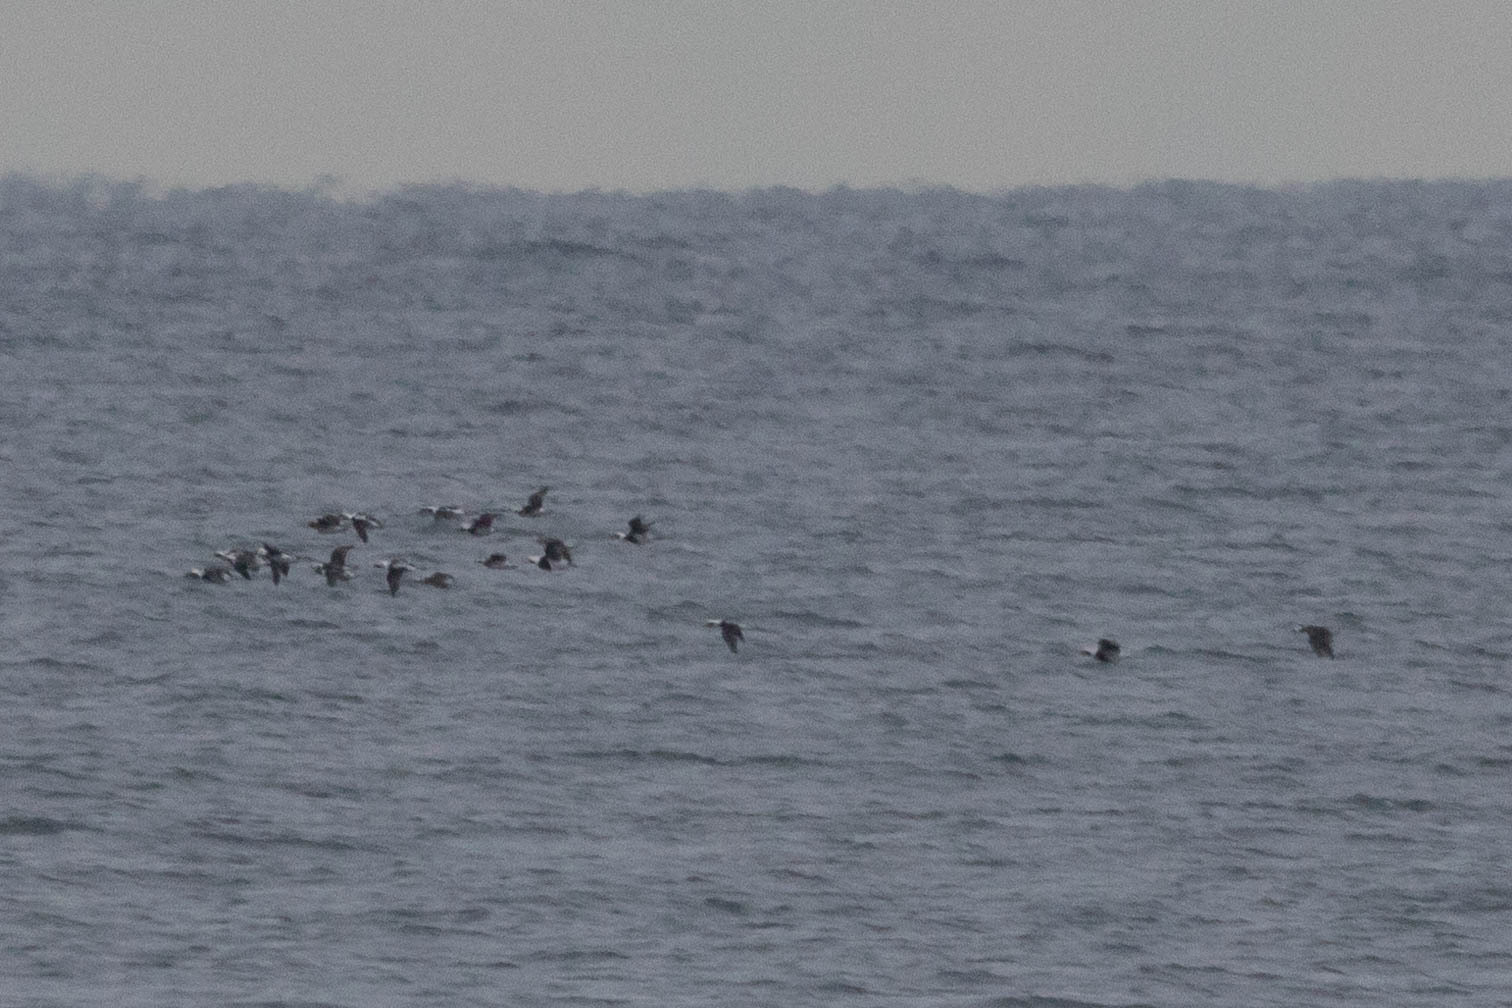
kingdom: Animalia
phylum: Chordata
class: Aves
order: Anseriformes
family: Anatidae
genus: Clangula
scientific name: Clangula hyemalis
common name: Long-tailed duck
